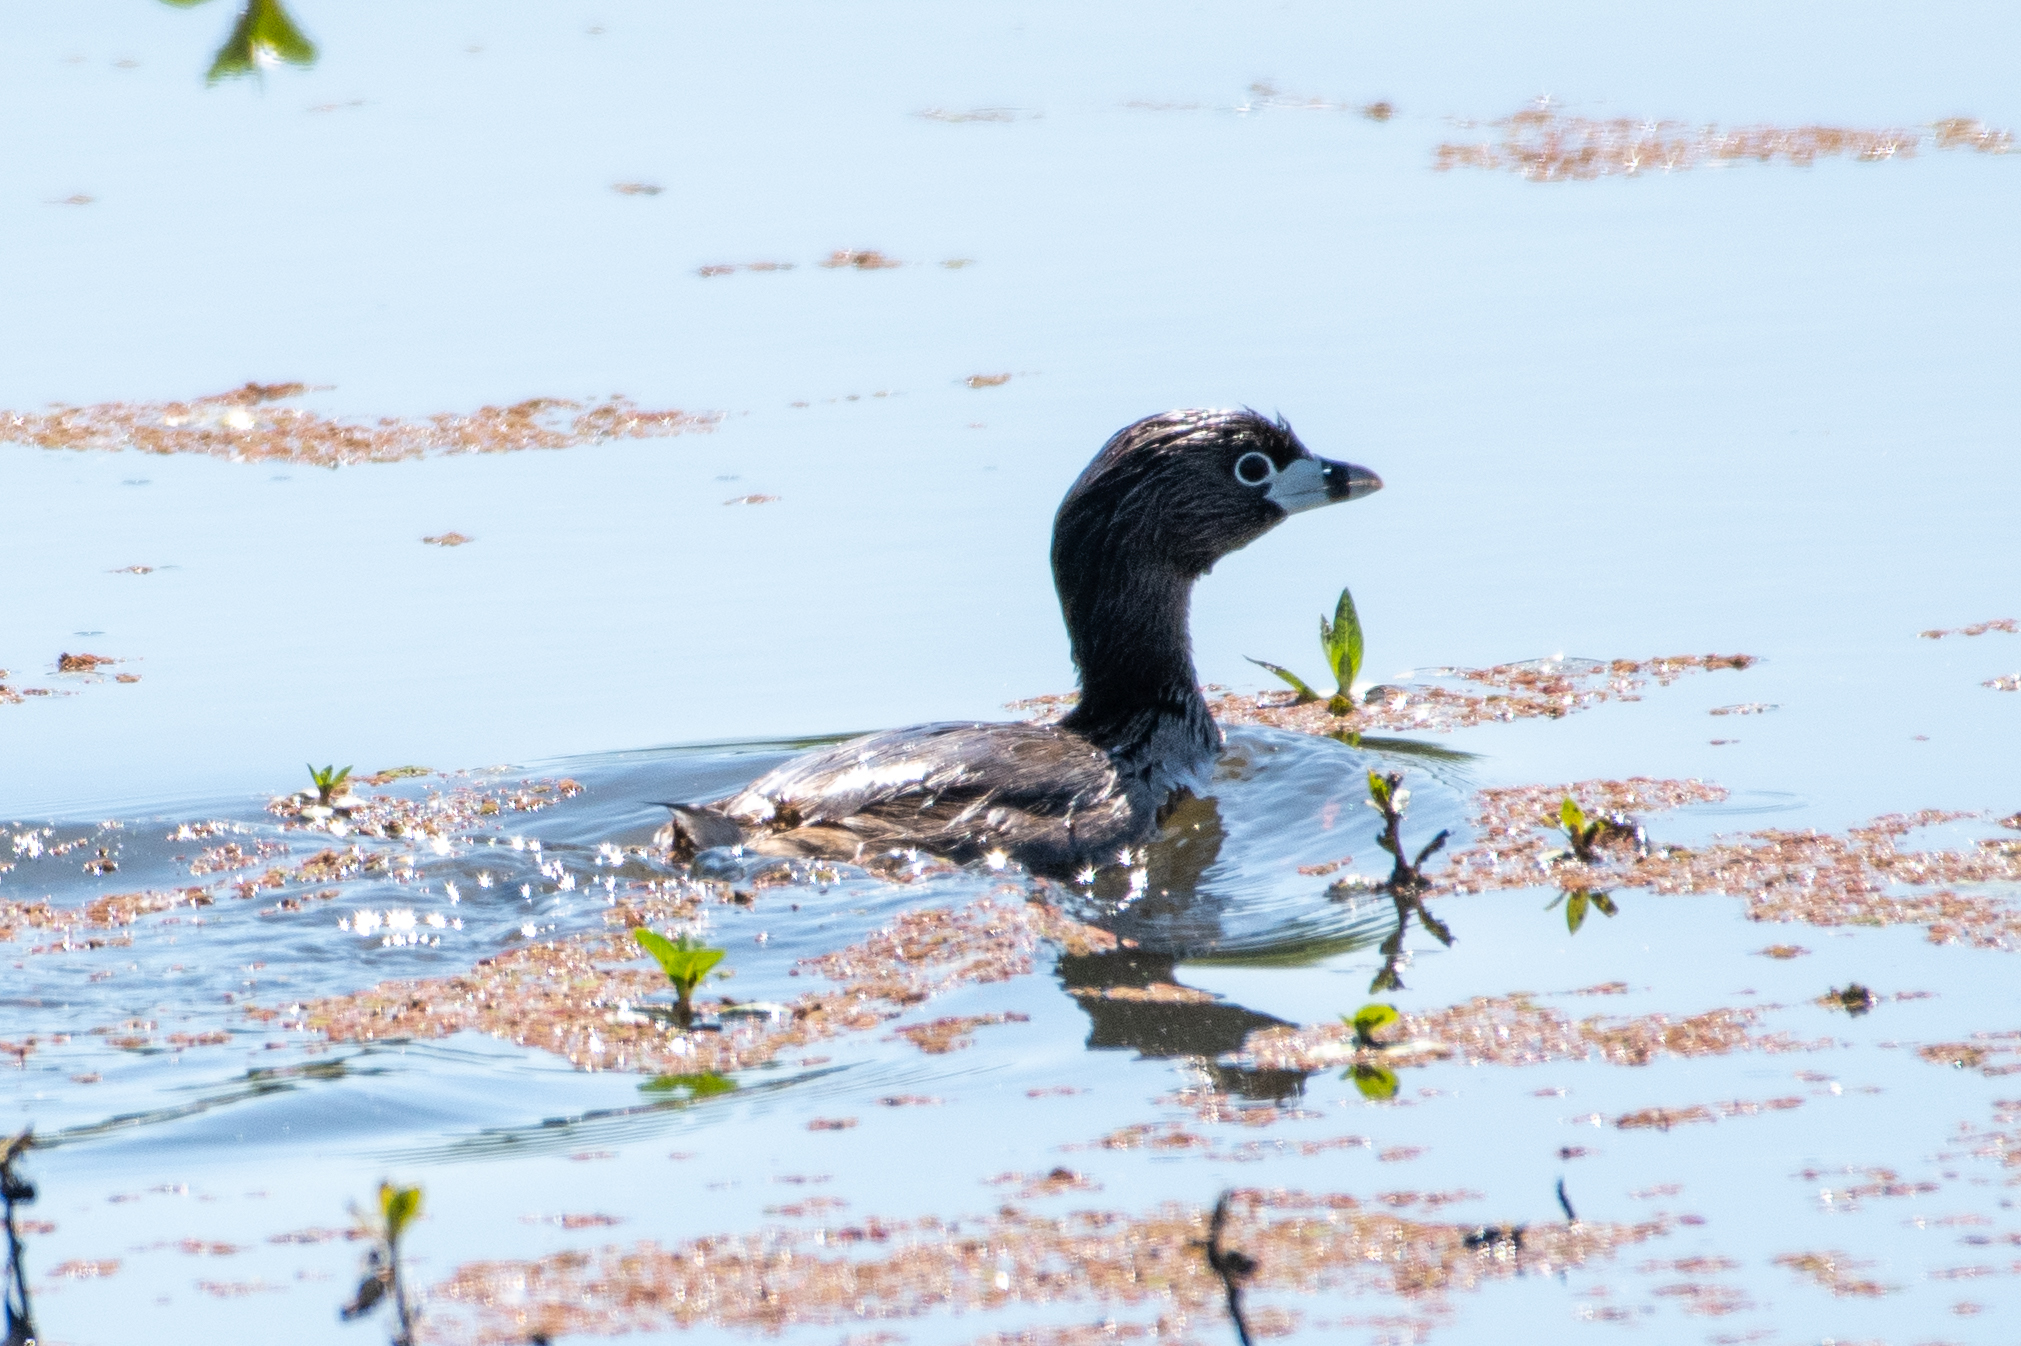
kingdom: Animalia
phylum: Chordata
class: Aves
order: Podicipediformes
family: Podicipedidae
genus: Podilymbus
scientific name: Podilymbus podiceps
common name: Pied-billed grebe
